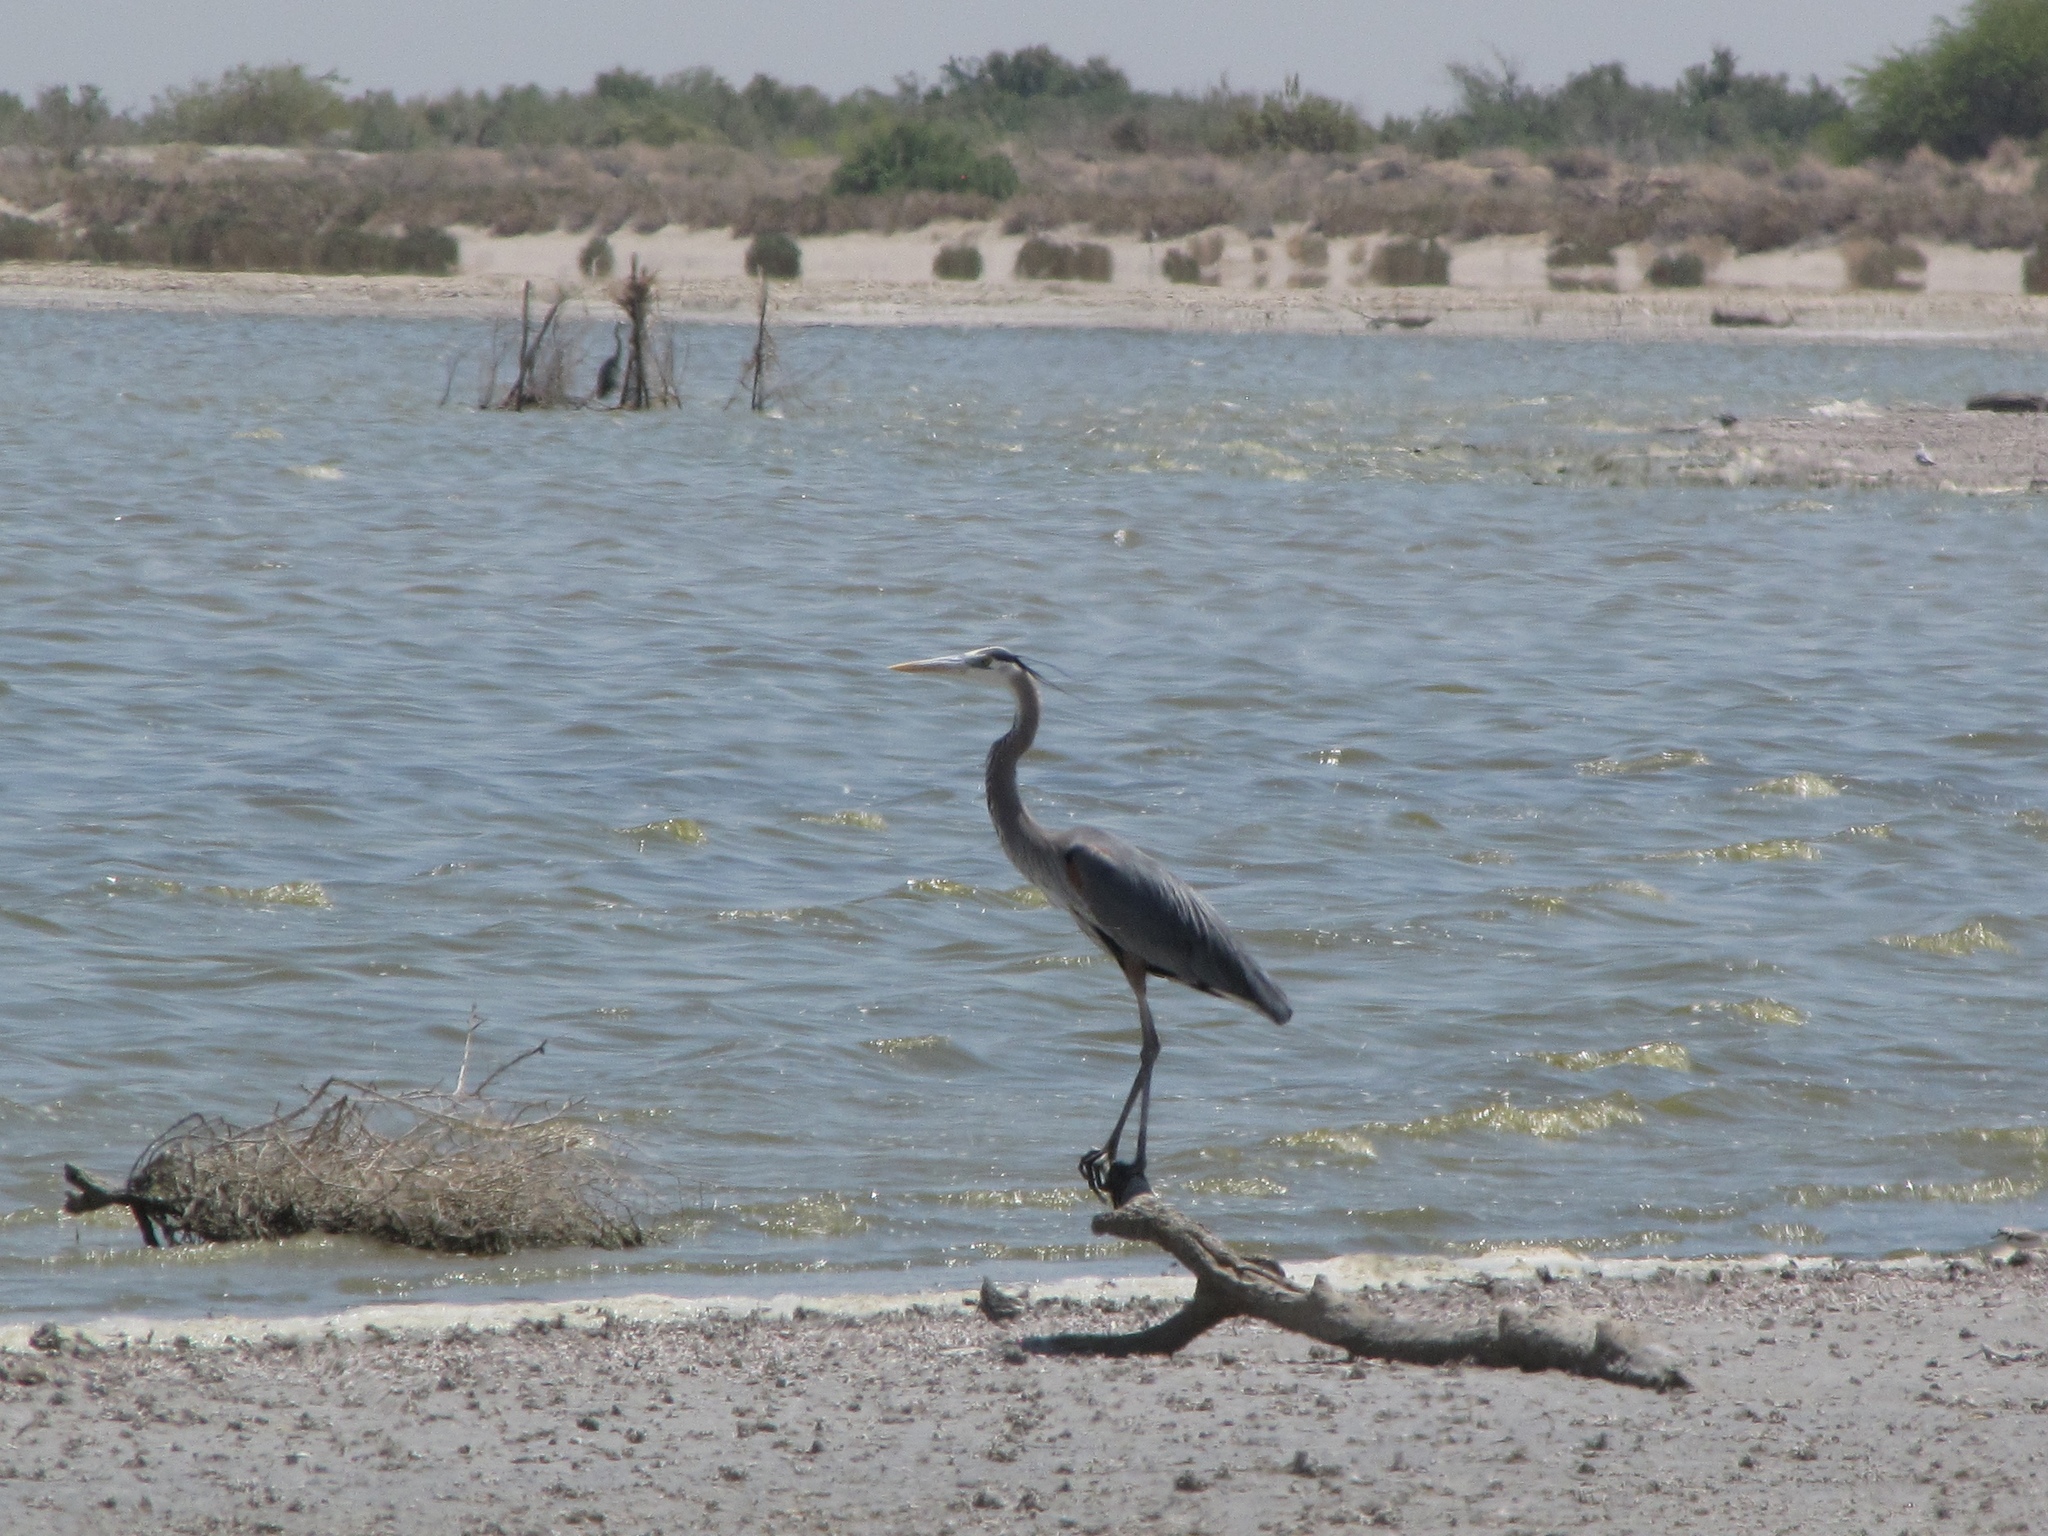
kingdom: Animalia
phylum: Chordata
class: Aves
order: Pelecaniformes
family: Ardeidae
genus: Ardea
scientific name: Ardea herodias
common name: Great blue heron
